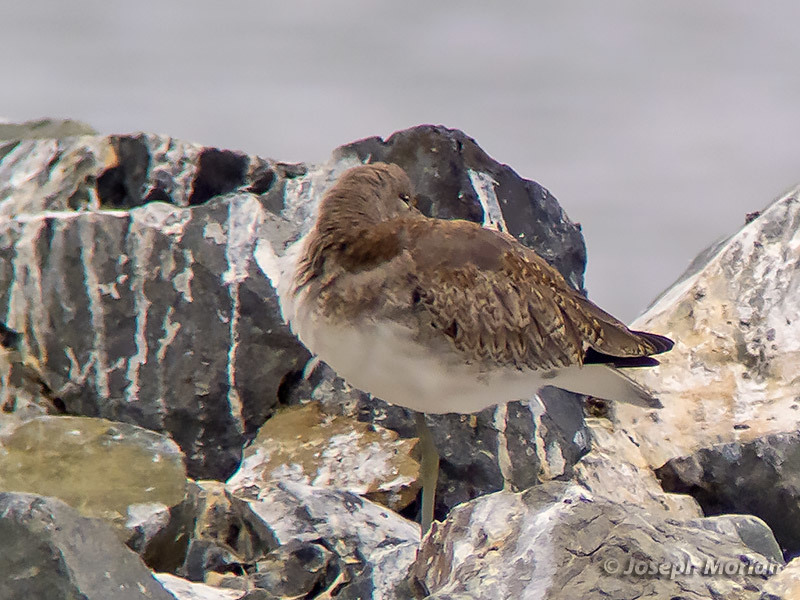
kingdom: Animalia
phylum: Chordata
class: Aves
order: Charadriiformes
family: Scolopacidae
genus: Tringa
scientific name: Tringa semipalmata
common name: Willet
